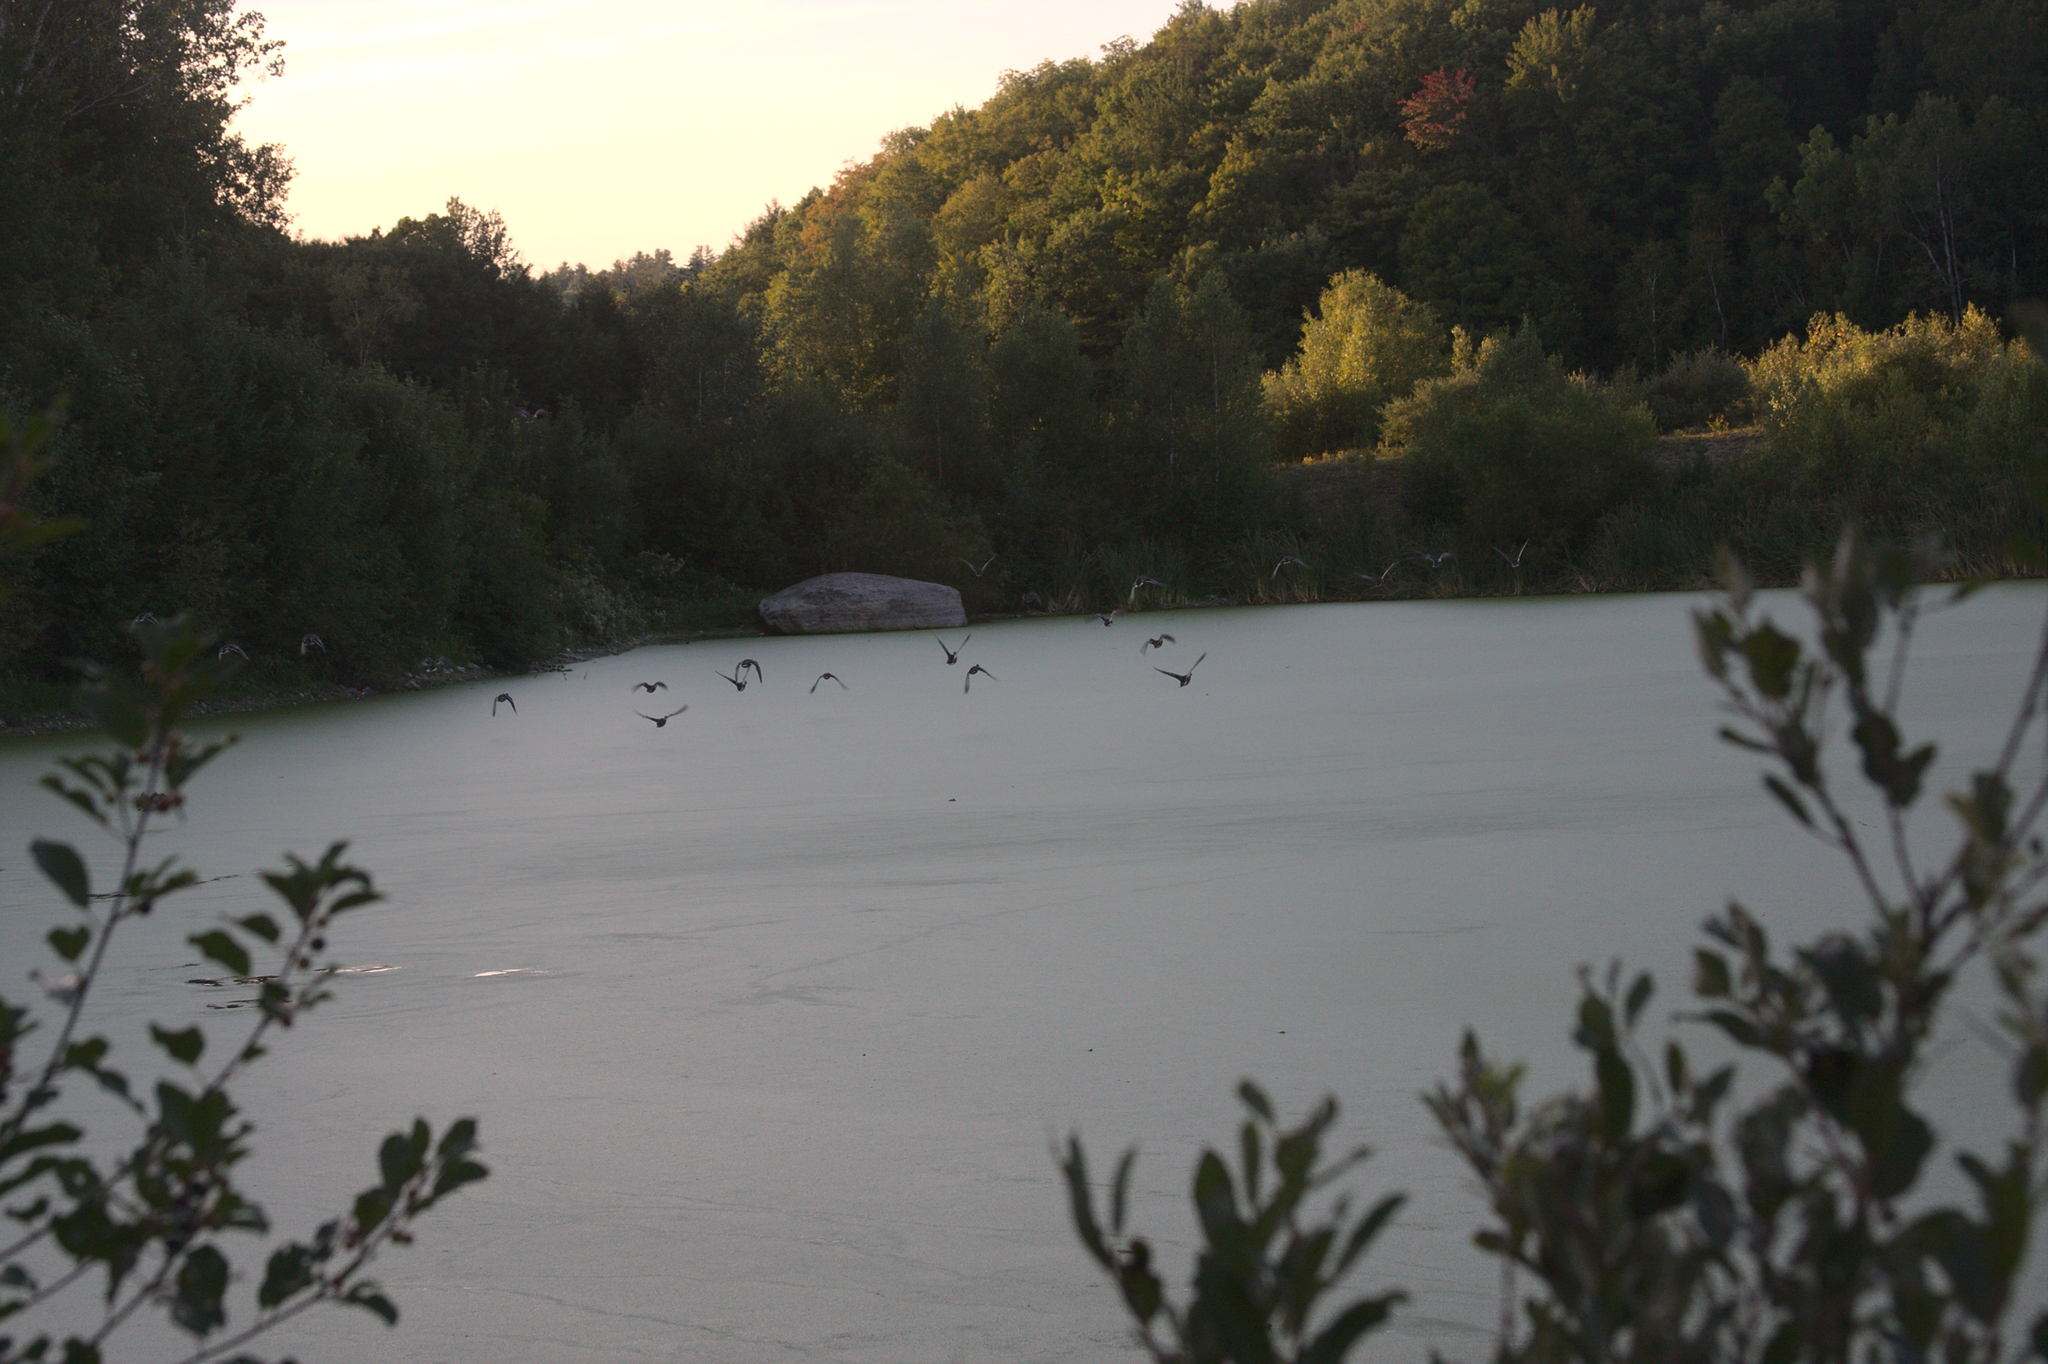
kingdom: Animalia
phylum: Chordata
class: Aves
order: Anseriformes
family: Anatidae
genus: Anas
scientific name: Anas platyrhynchos
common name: Mallard
